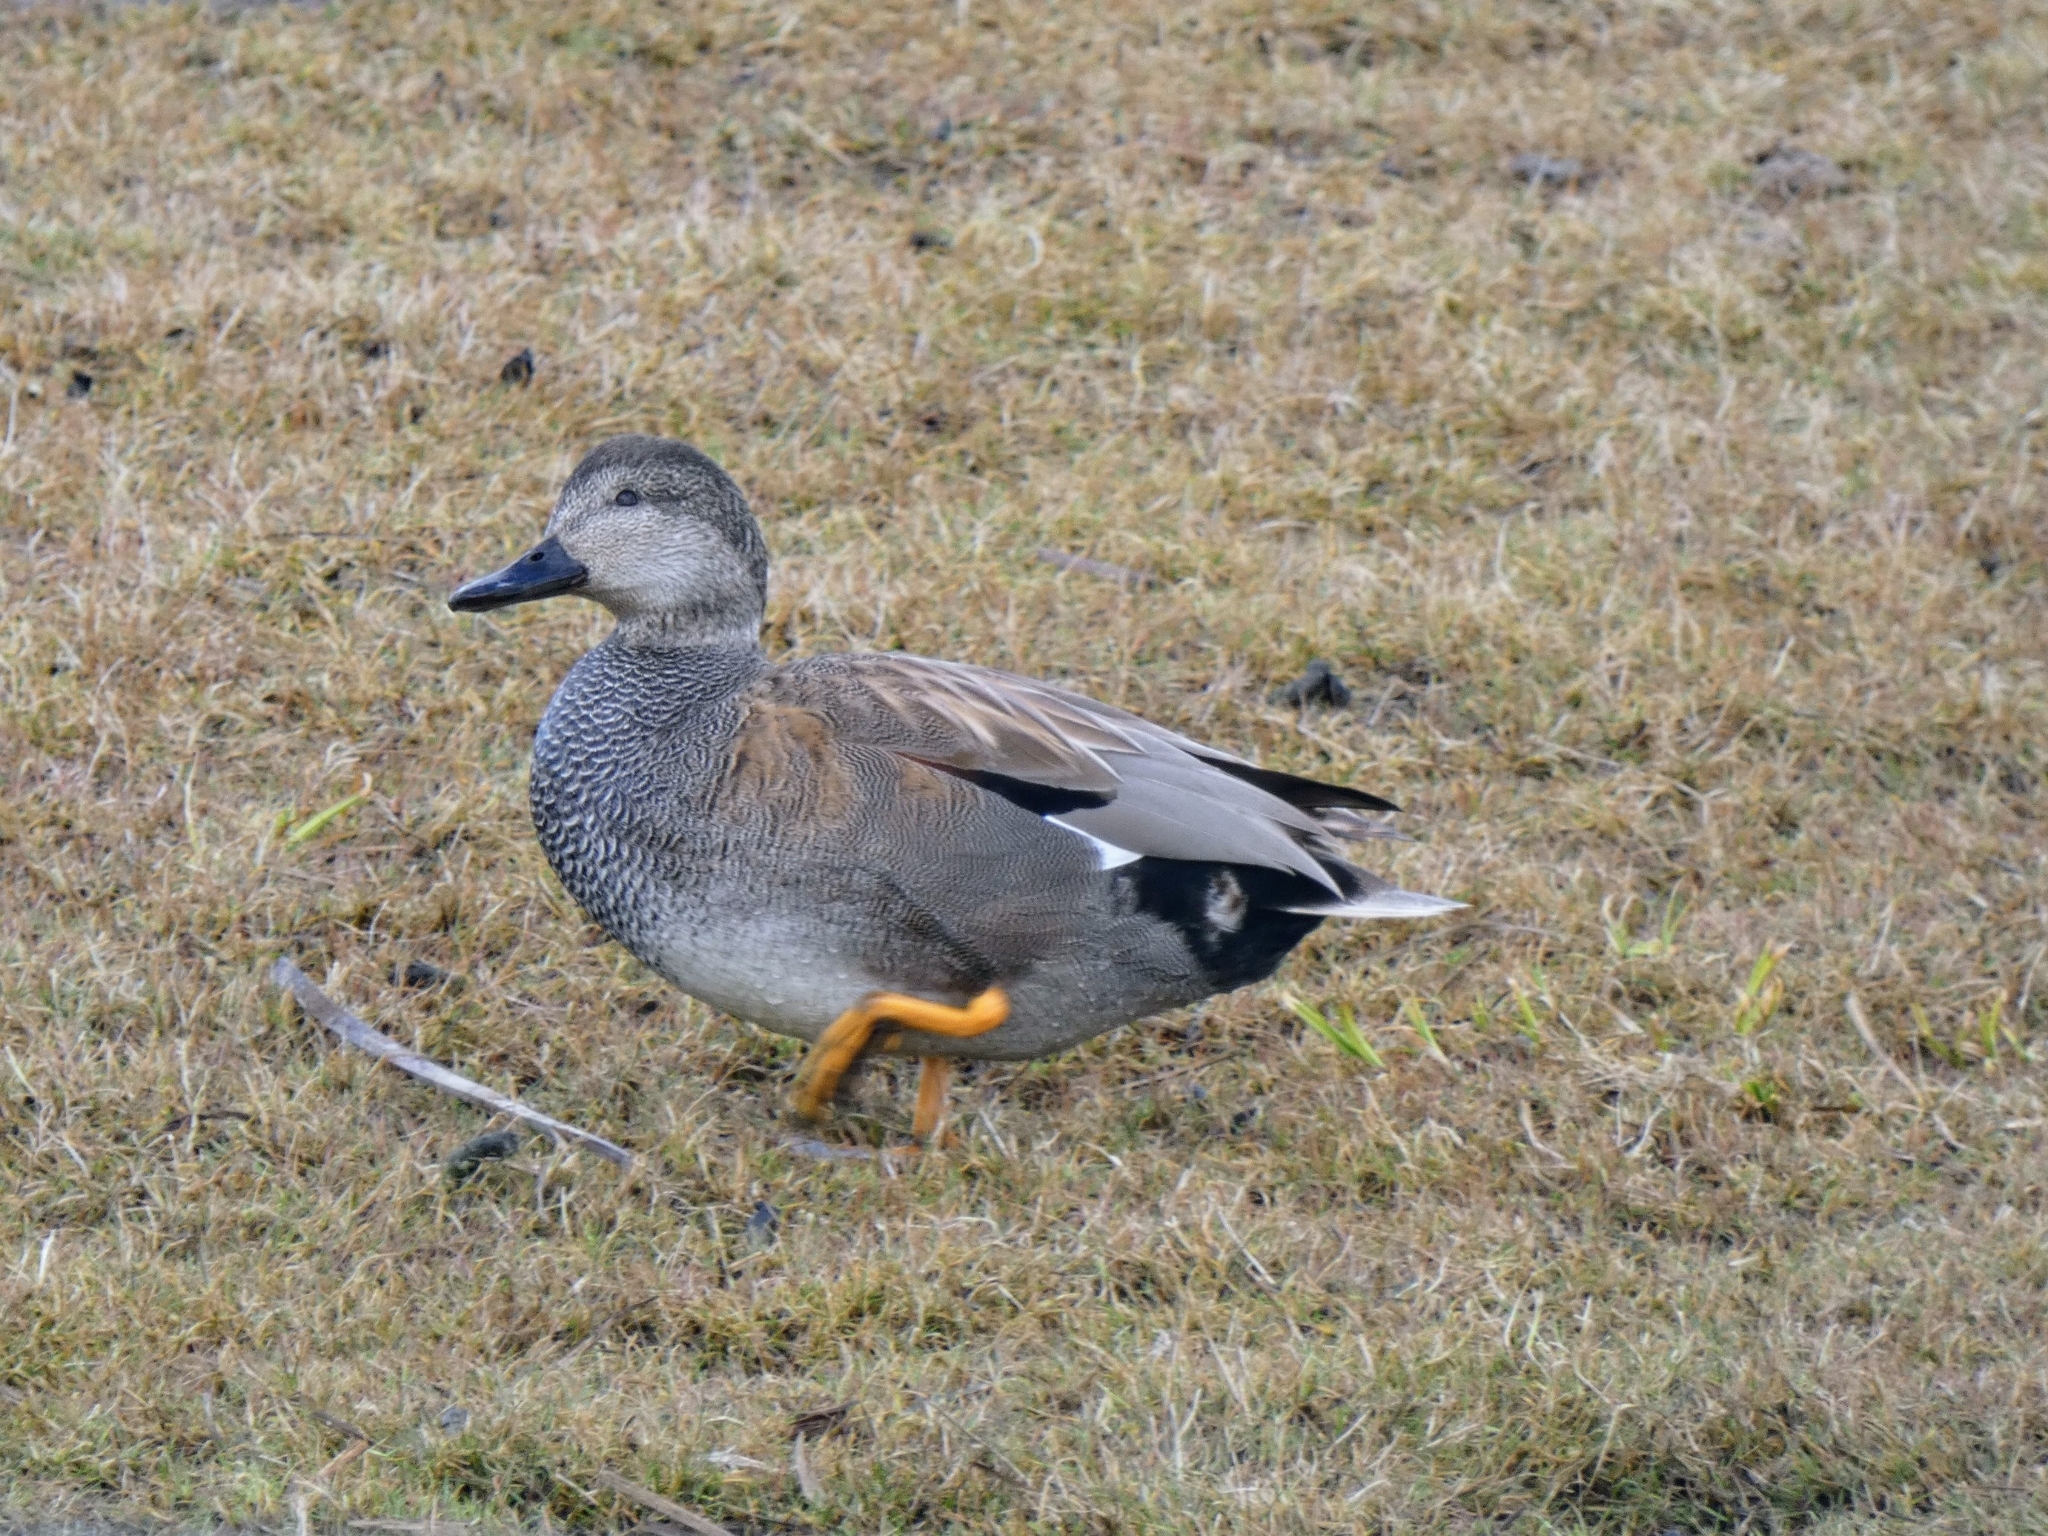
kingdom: Animalia
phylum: Chordata
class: Aves
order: Anseriformes
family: Anatidae
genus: Mareca
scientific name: Mareca strepera
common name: Gadwall
